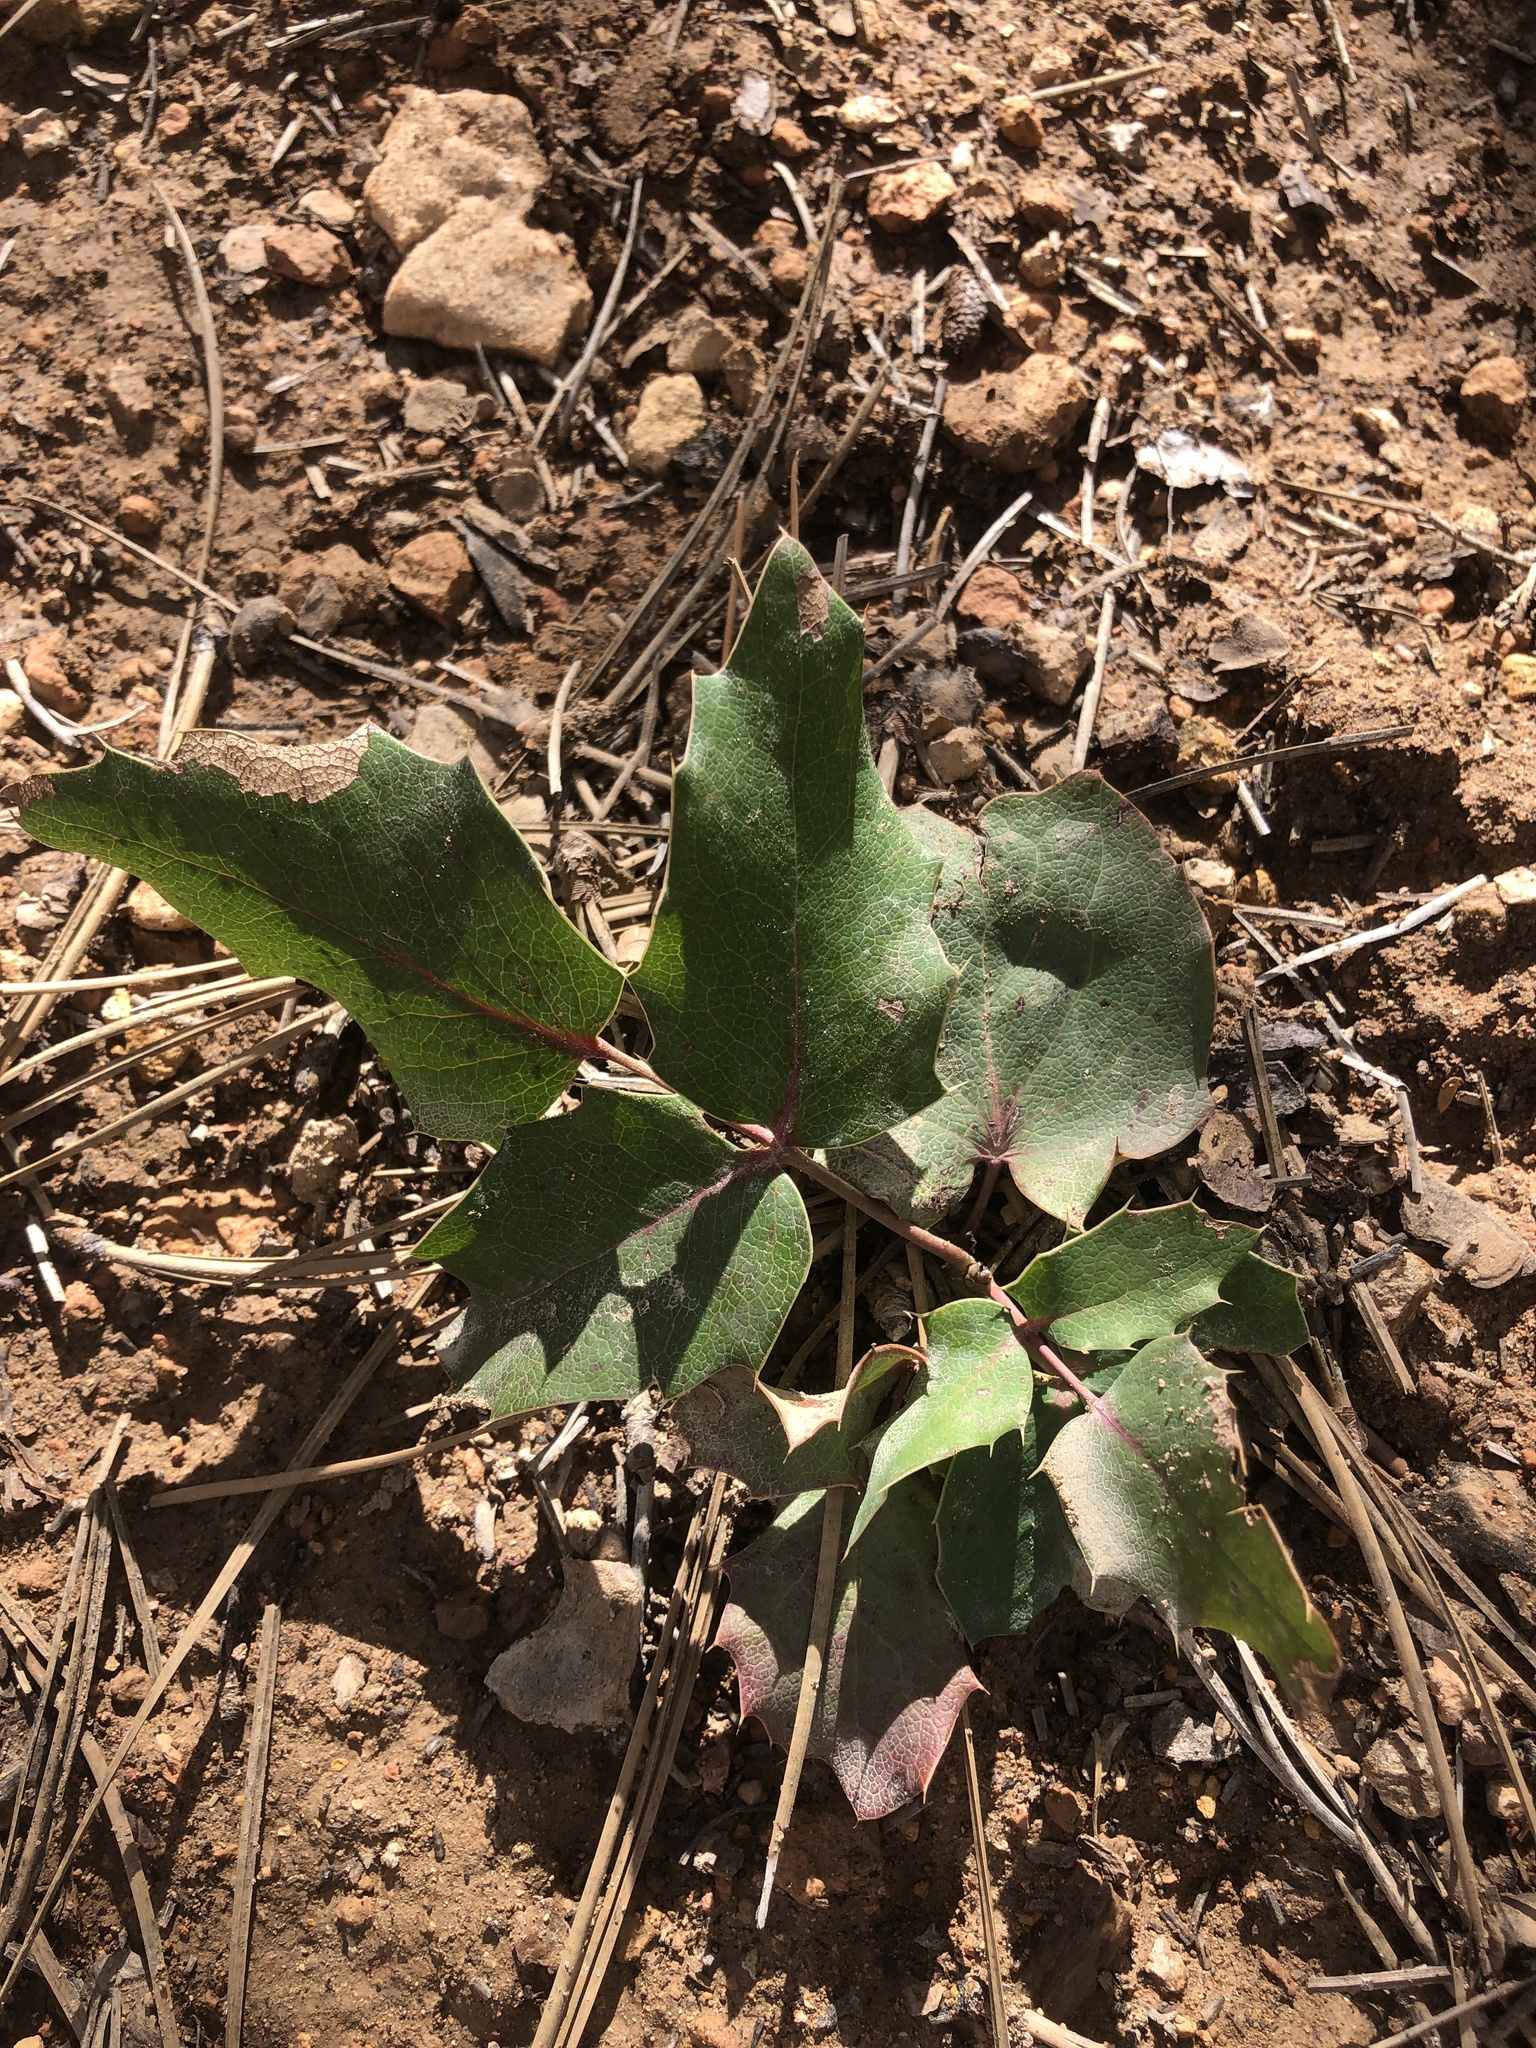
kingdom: Plantae
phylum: Tracheophyta
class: Magnoliopsida
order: Ranunculales
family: Berberidaceae
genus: Mahonia
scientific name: Mahonia repens
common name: Creeping oregon-grape
